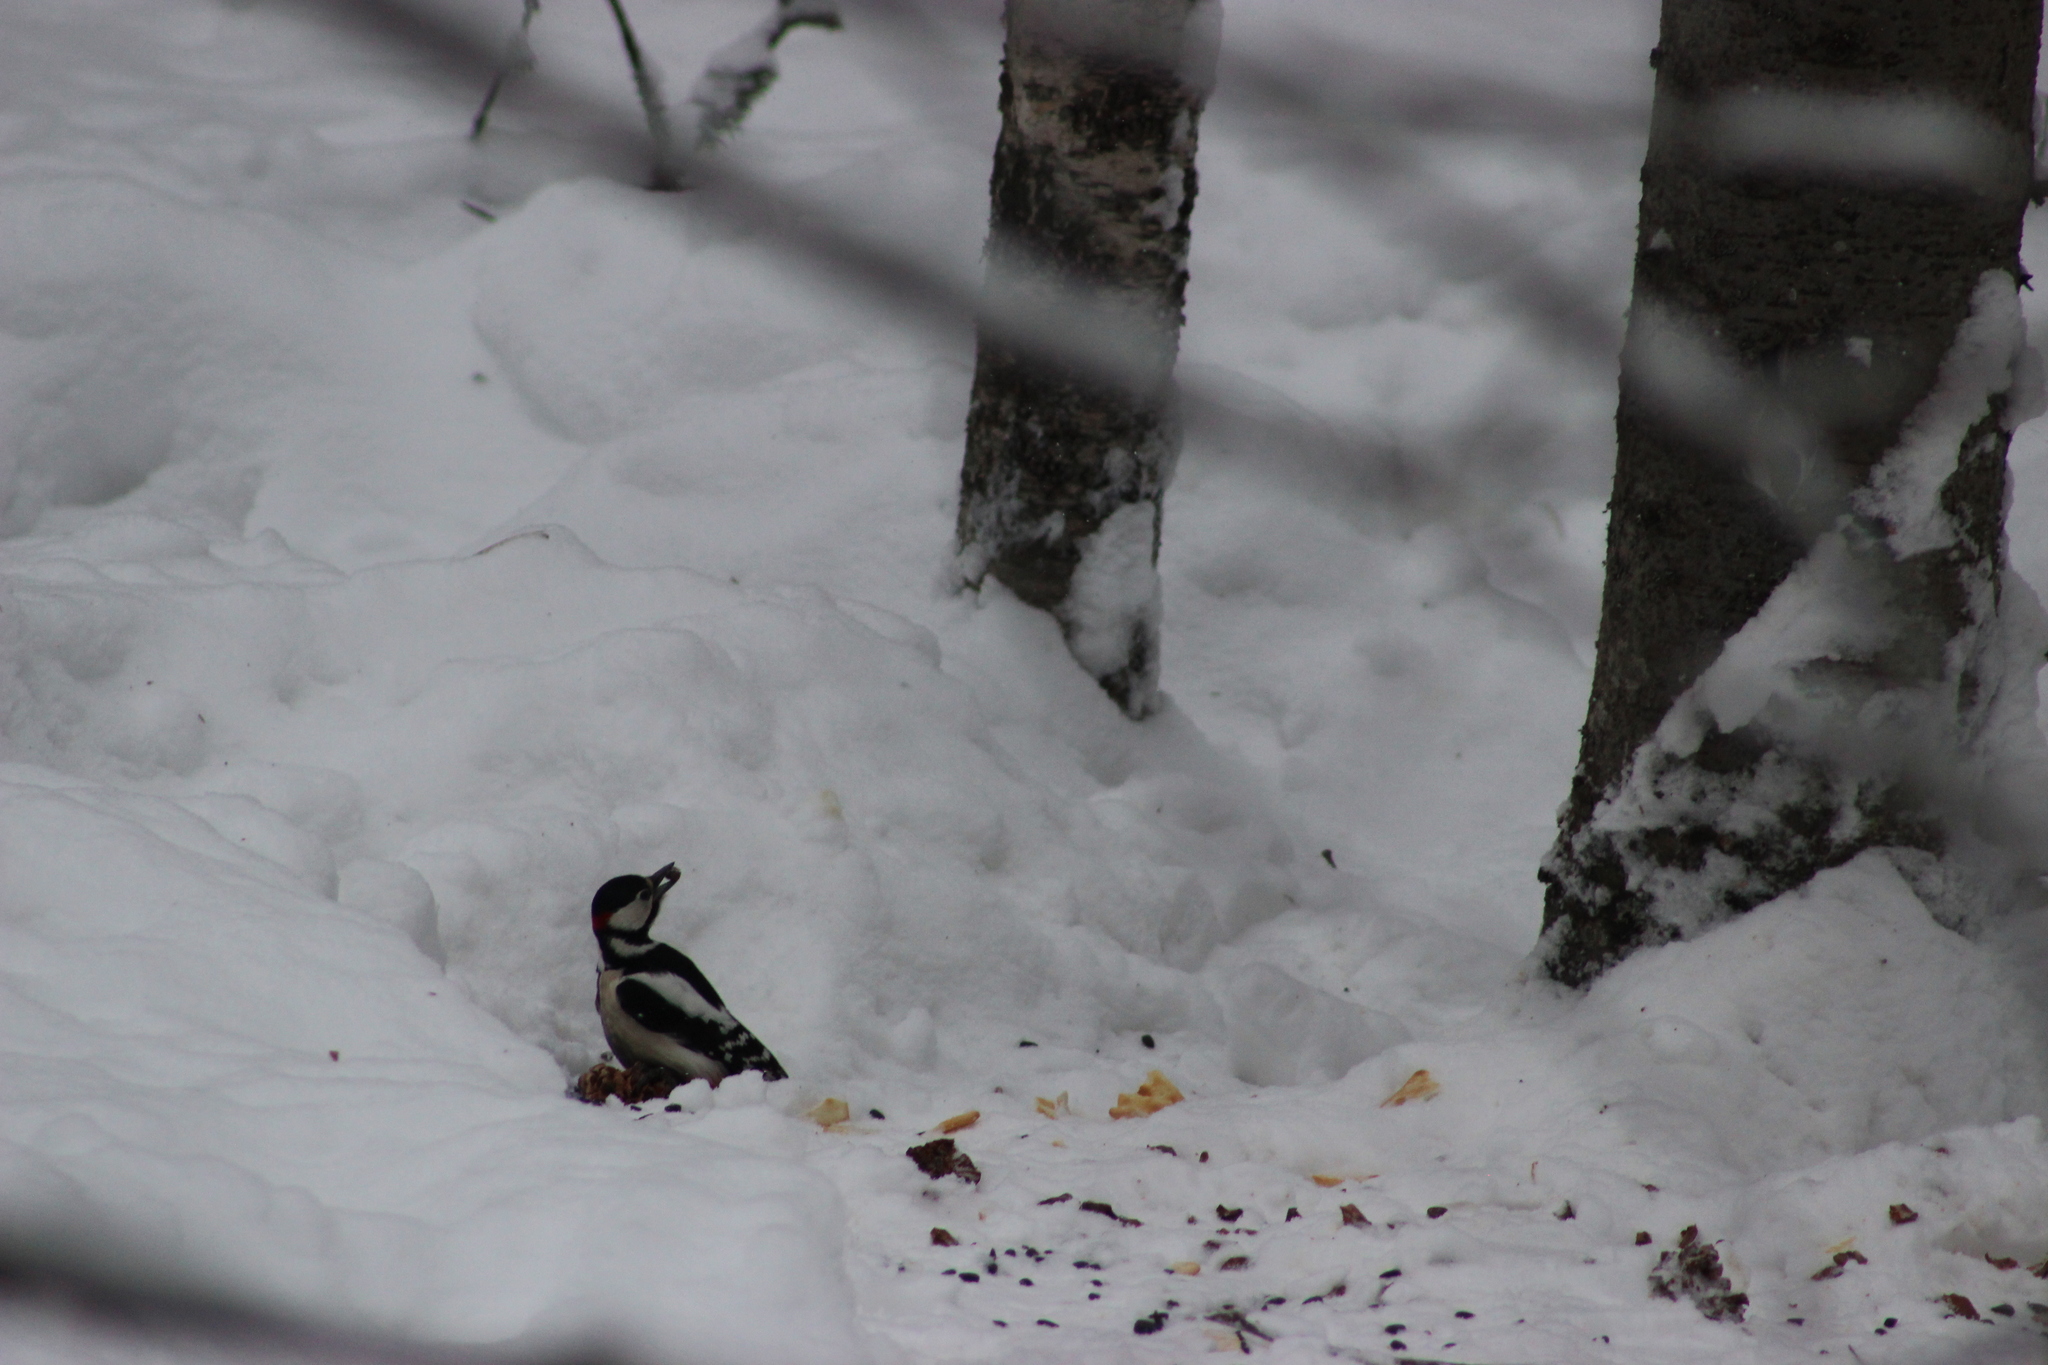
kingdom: Animalia
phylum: Chordata
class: Aves
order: Piciformes
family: Picidae
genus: Dendrocopos
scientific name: Dendrocopos major
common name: Great spotted woodpecker
